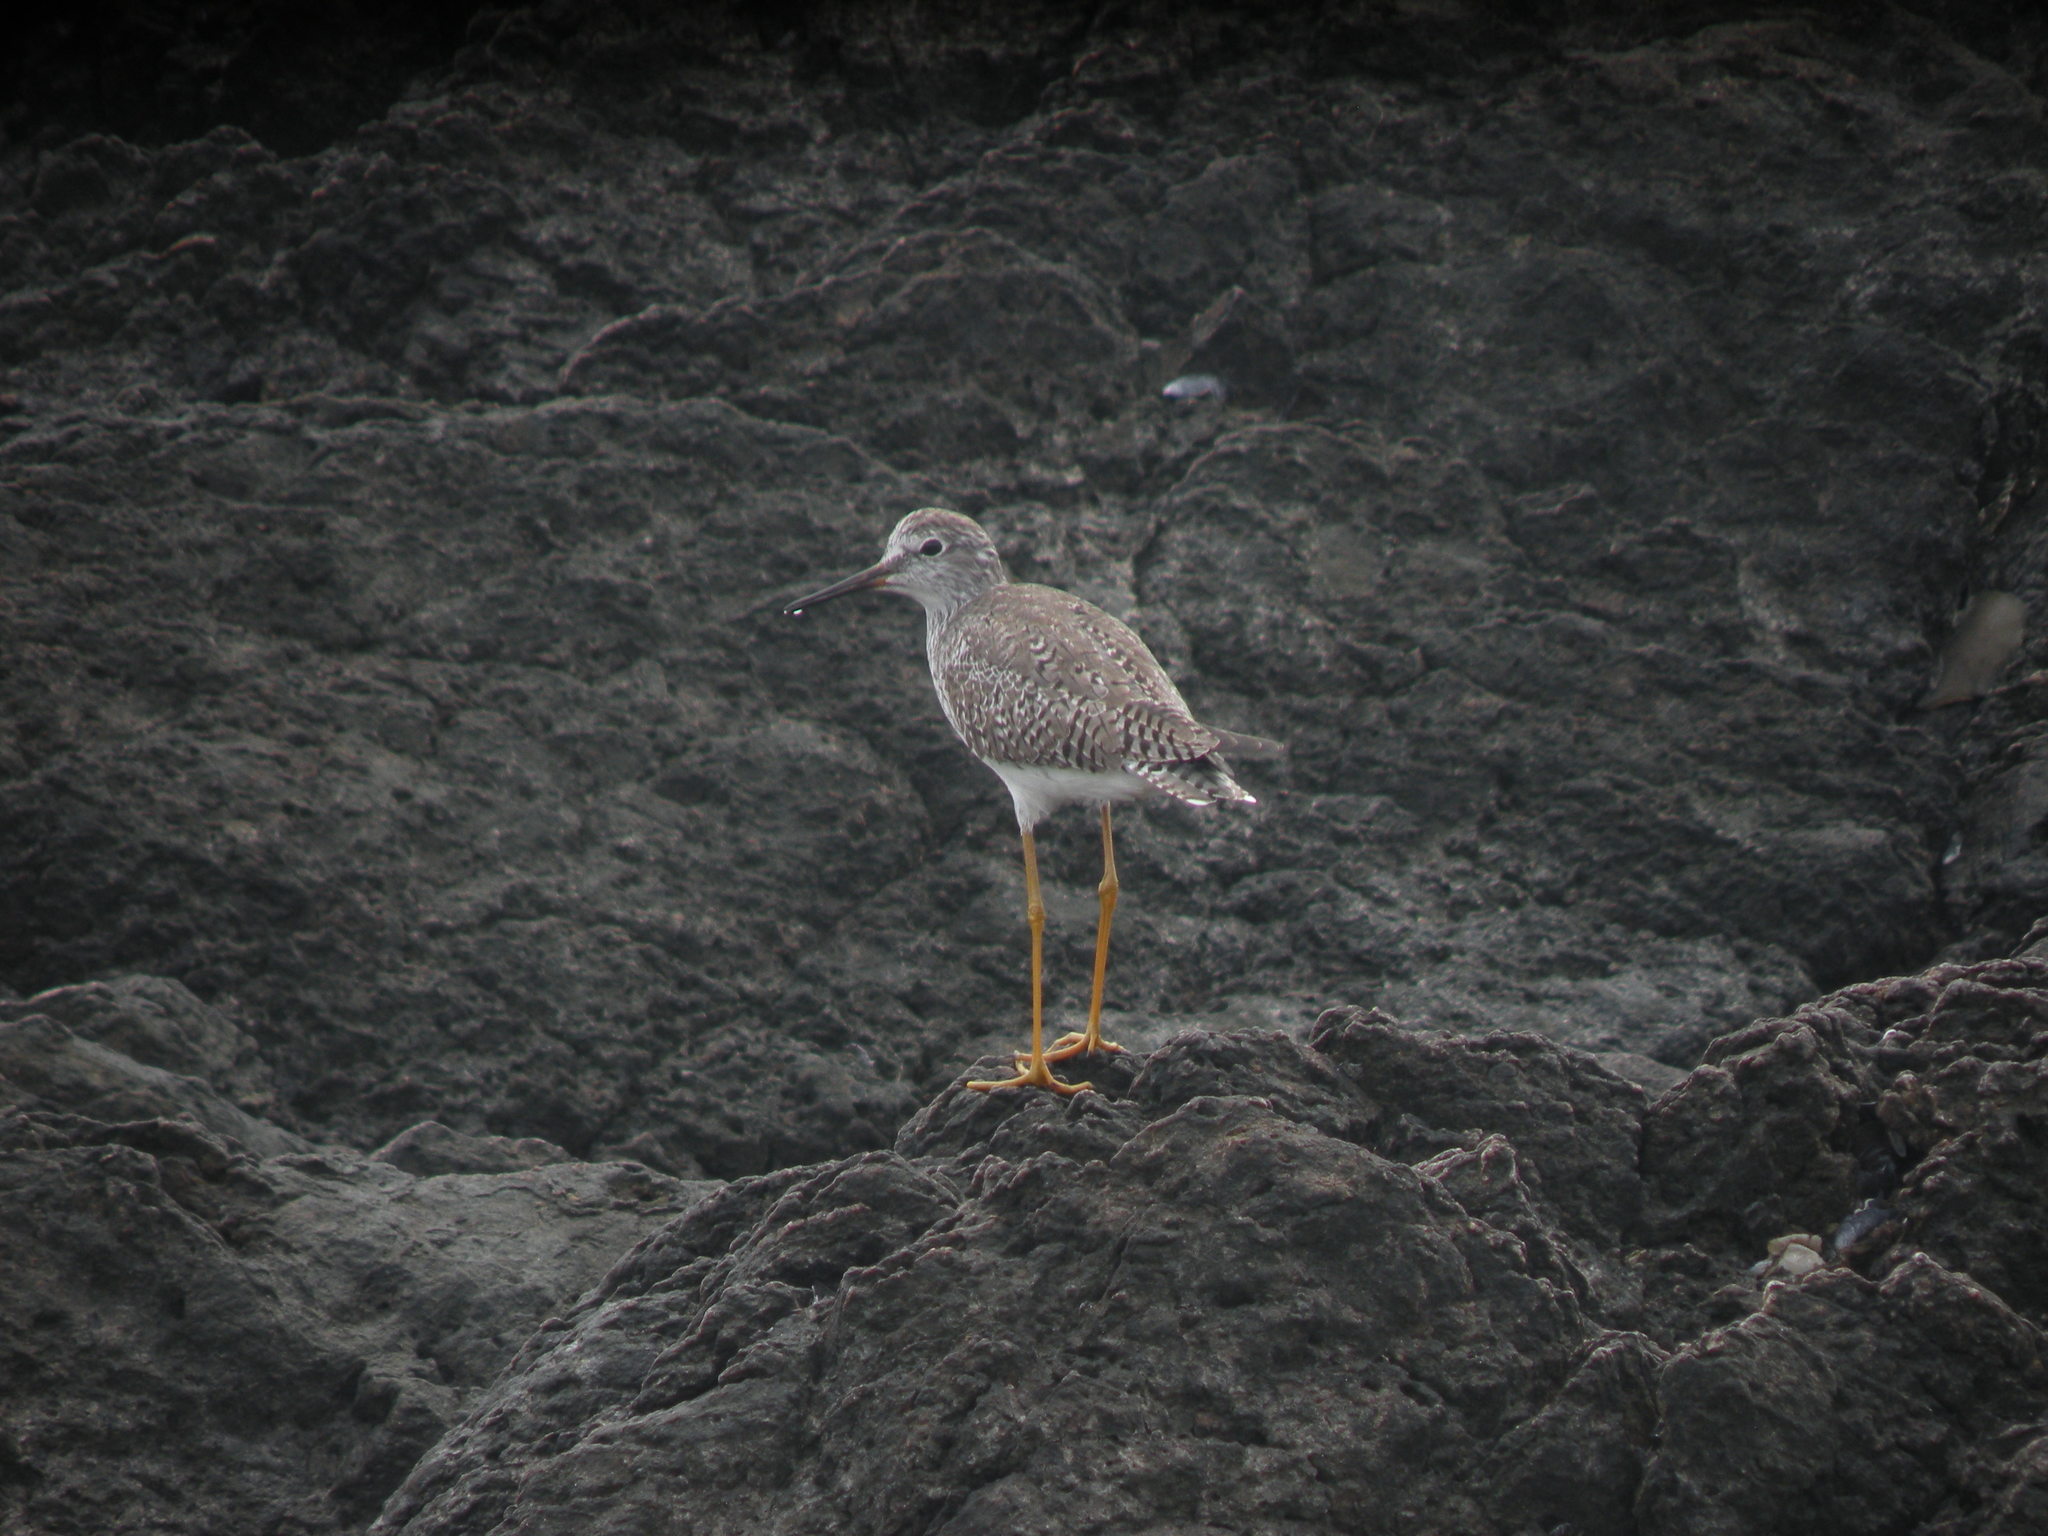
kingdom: Animalia
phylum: Chordata
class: Aves
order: Charadriiformes
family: Scolopacidae
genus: Tringa
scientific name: Tringa flavipes
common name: Lesser yellowlegs
